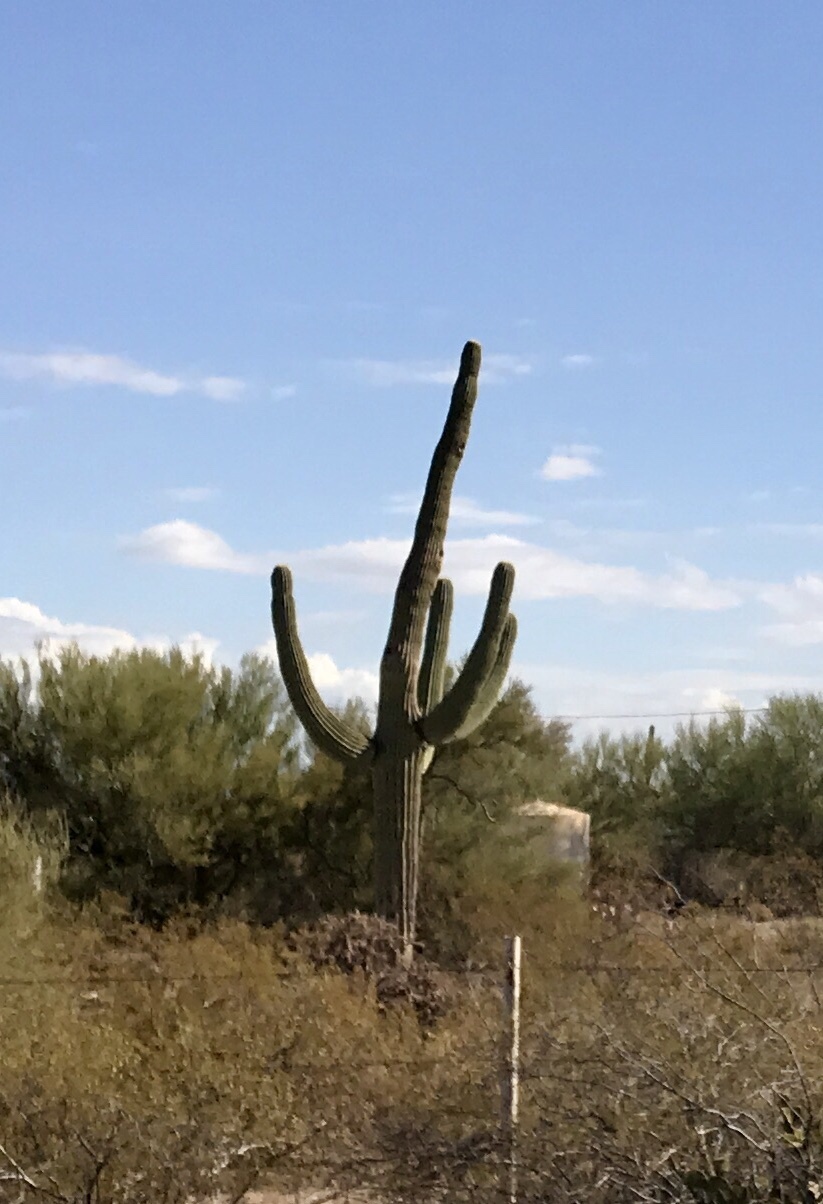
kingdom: Plantae
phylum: Tracheophyta
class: Magnoliopsida
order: Caryophyllales
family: Cactaceae
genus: Carnegiea
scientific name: Carnegiea gigantea
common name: Saguaro
